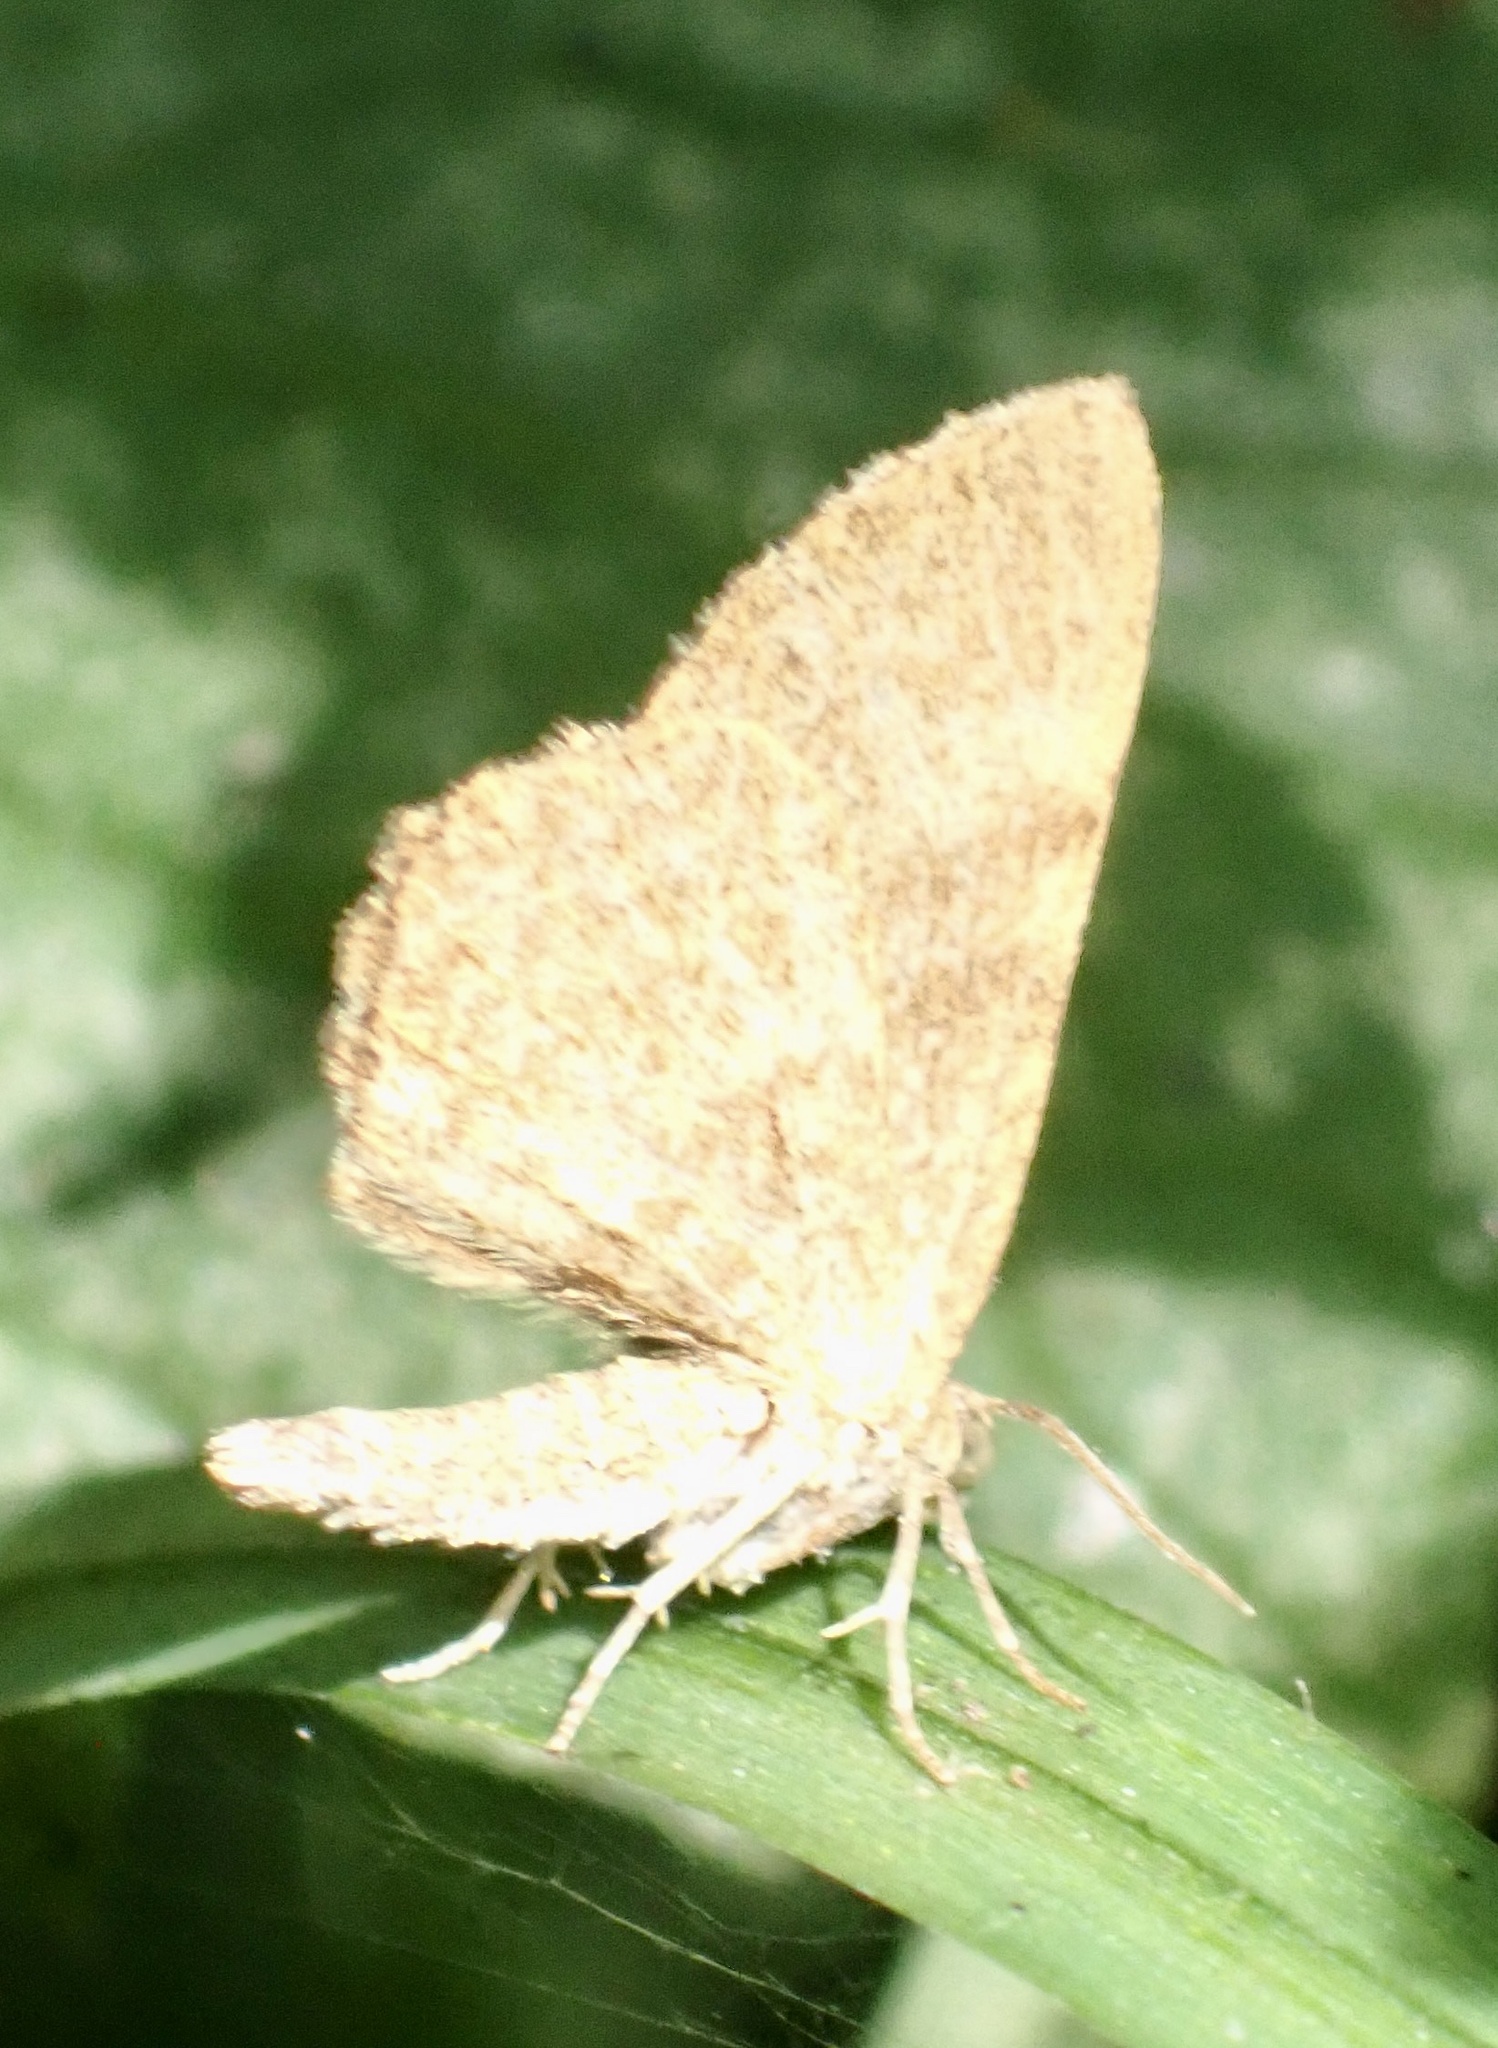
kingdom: Animalia
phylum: Arthropoda
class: Insecta
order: Lepidoptera
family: Geometridae
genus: Euchoeca
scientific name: Euchoeca nebulata
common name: Dingy shell
